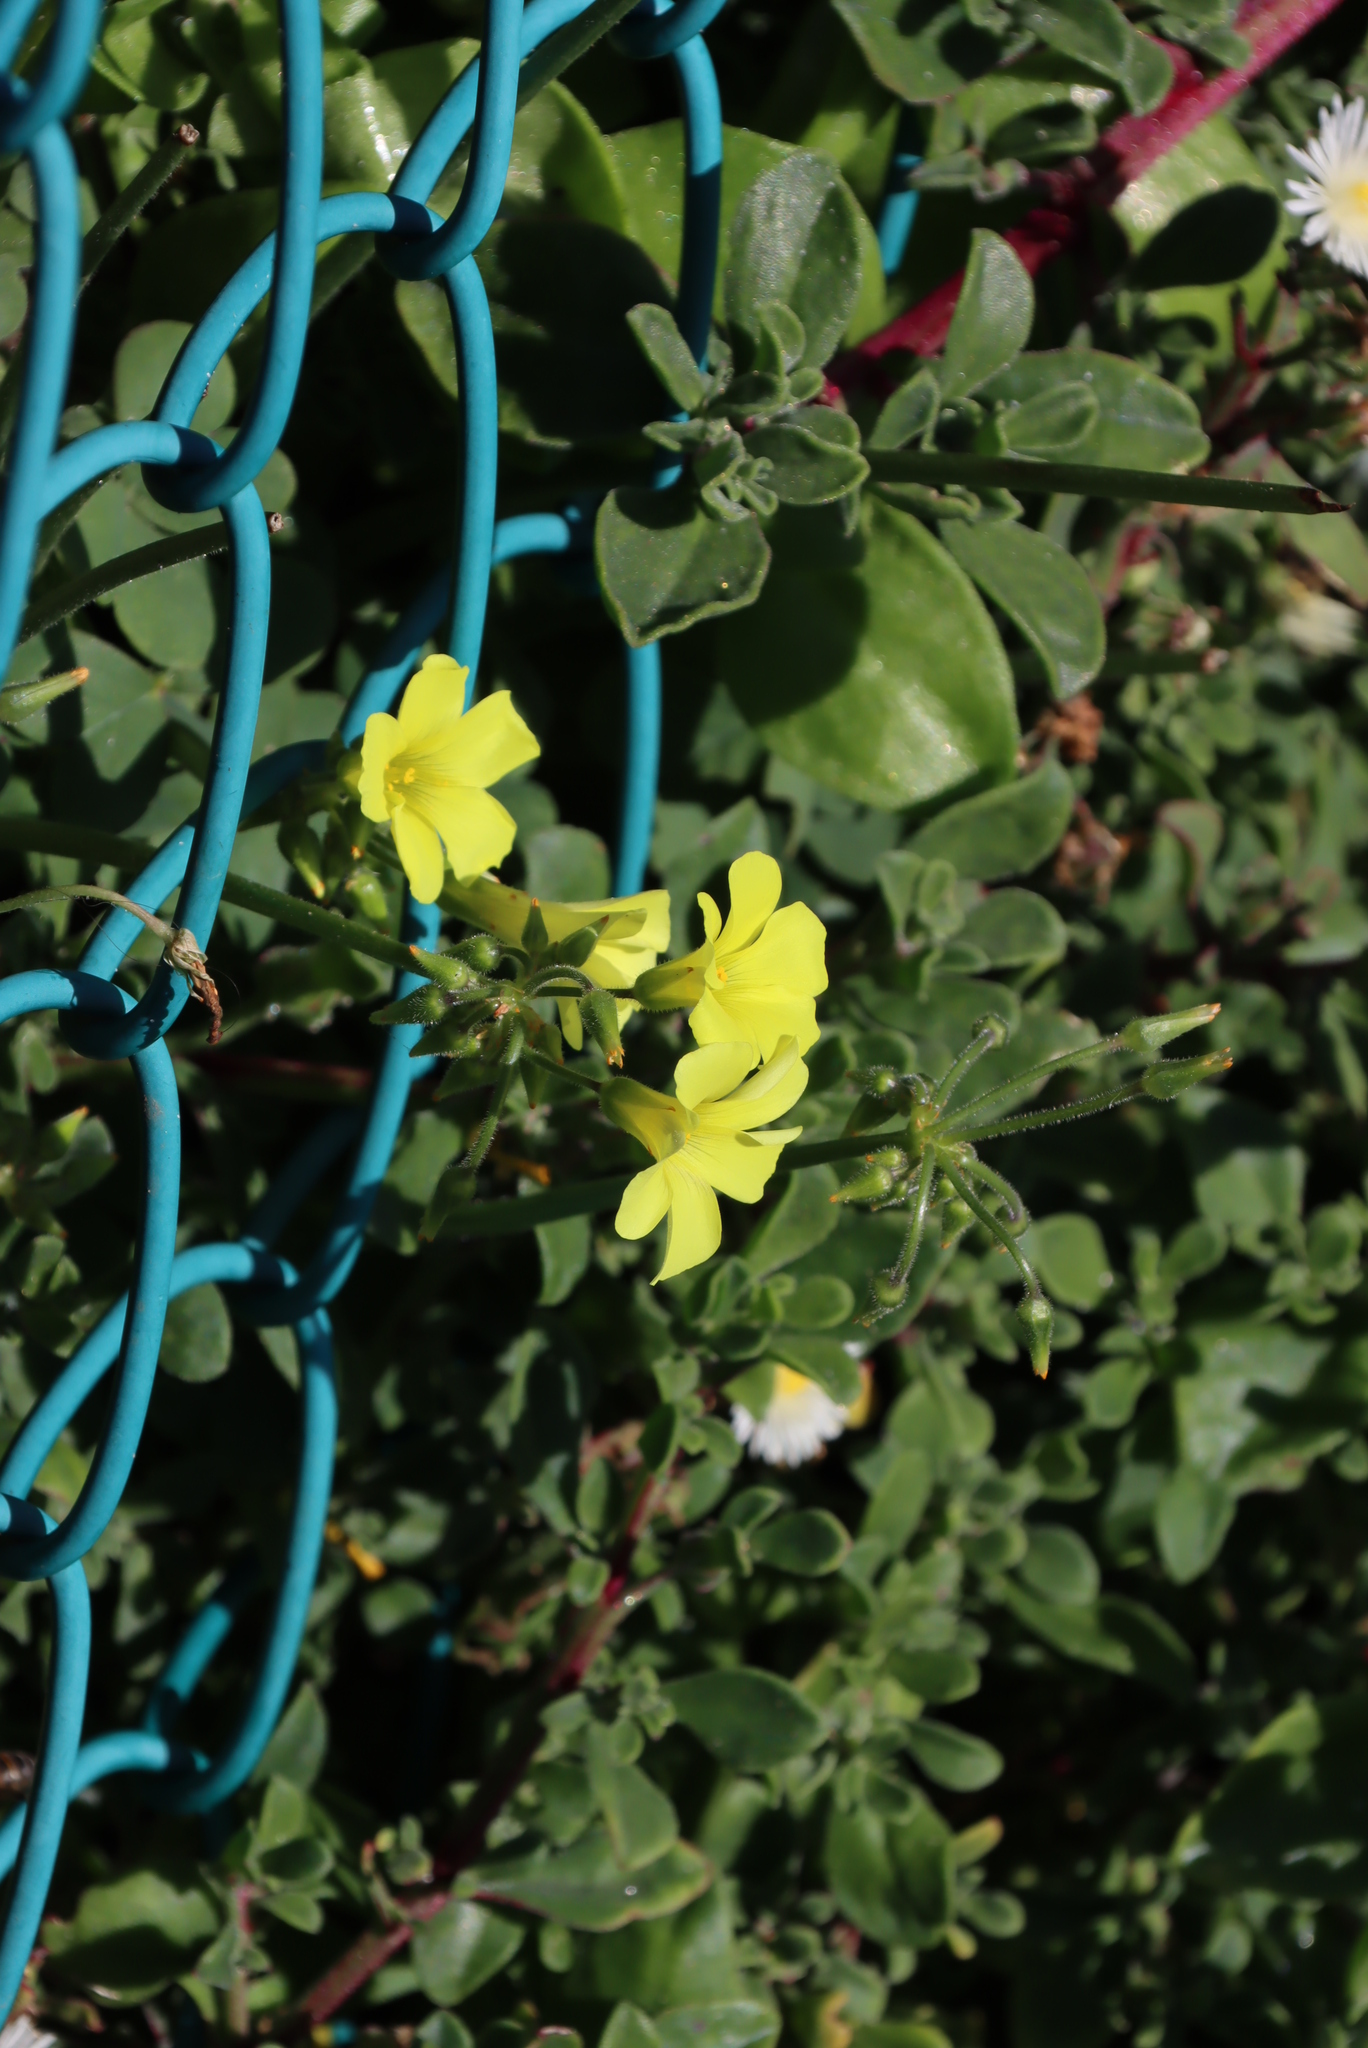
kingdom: Plantae
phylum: Tracheophyta
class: Magnoliopsida
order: Oxalidales
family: Oxalidaceae
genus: Oxalis
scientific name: Oxalis pes-caprae
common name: Bermuda-buttercup
